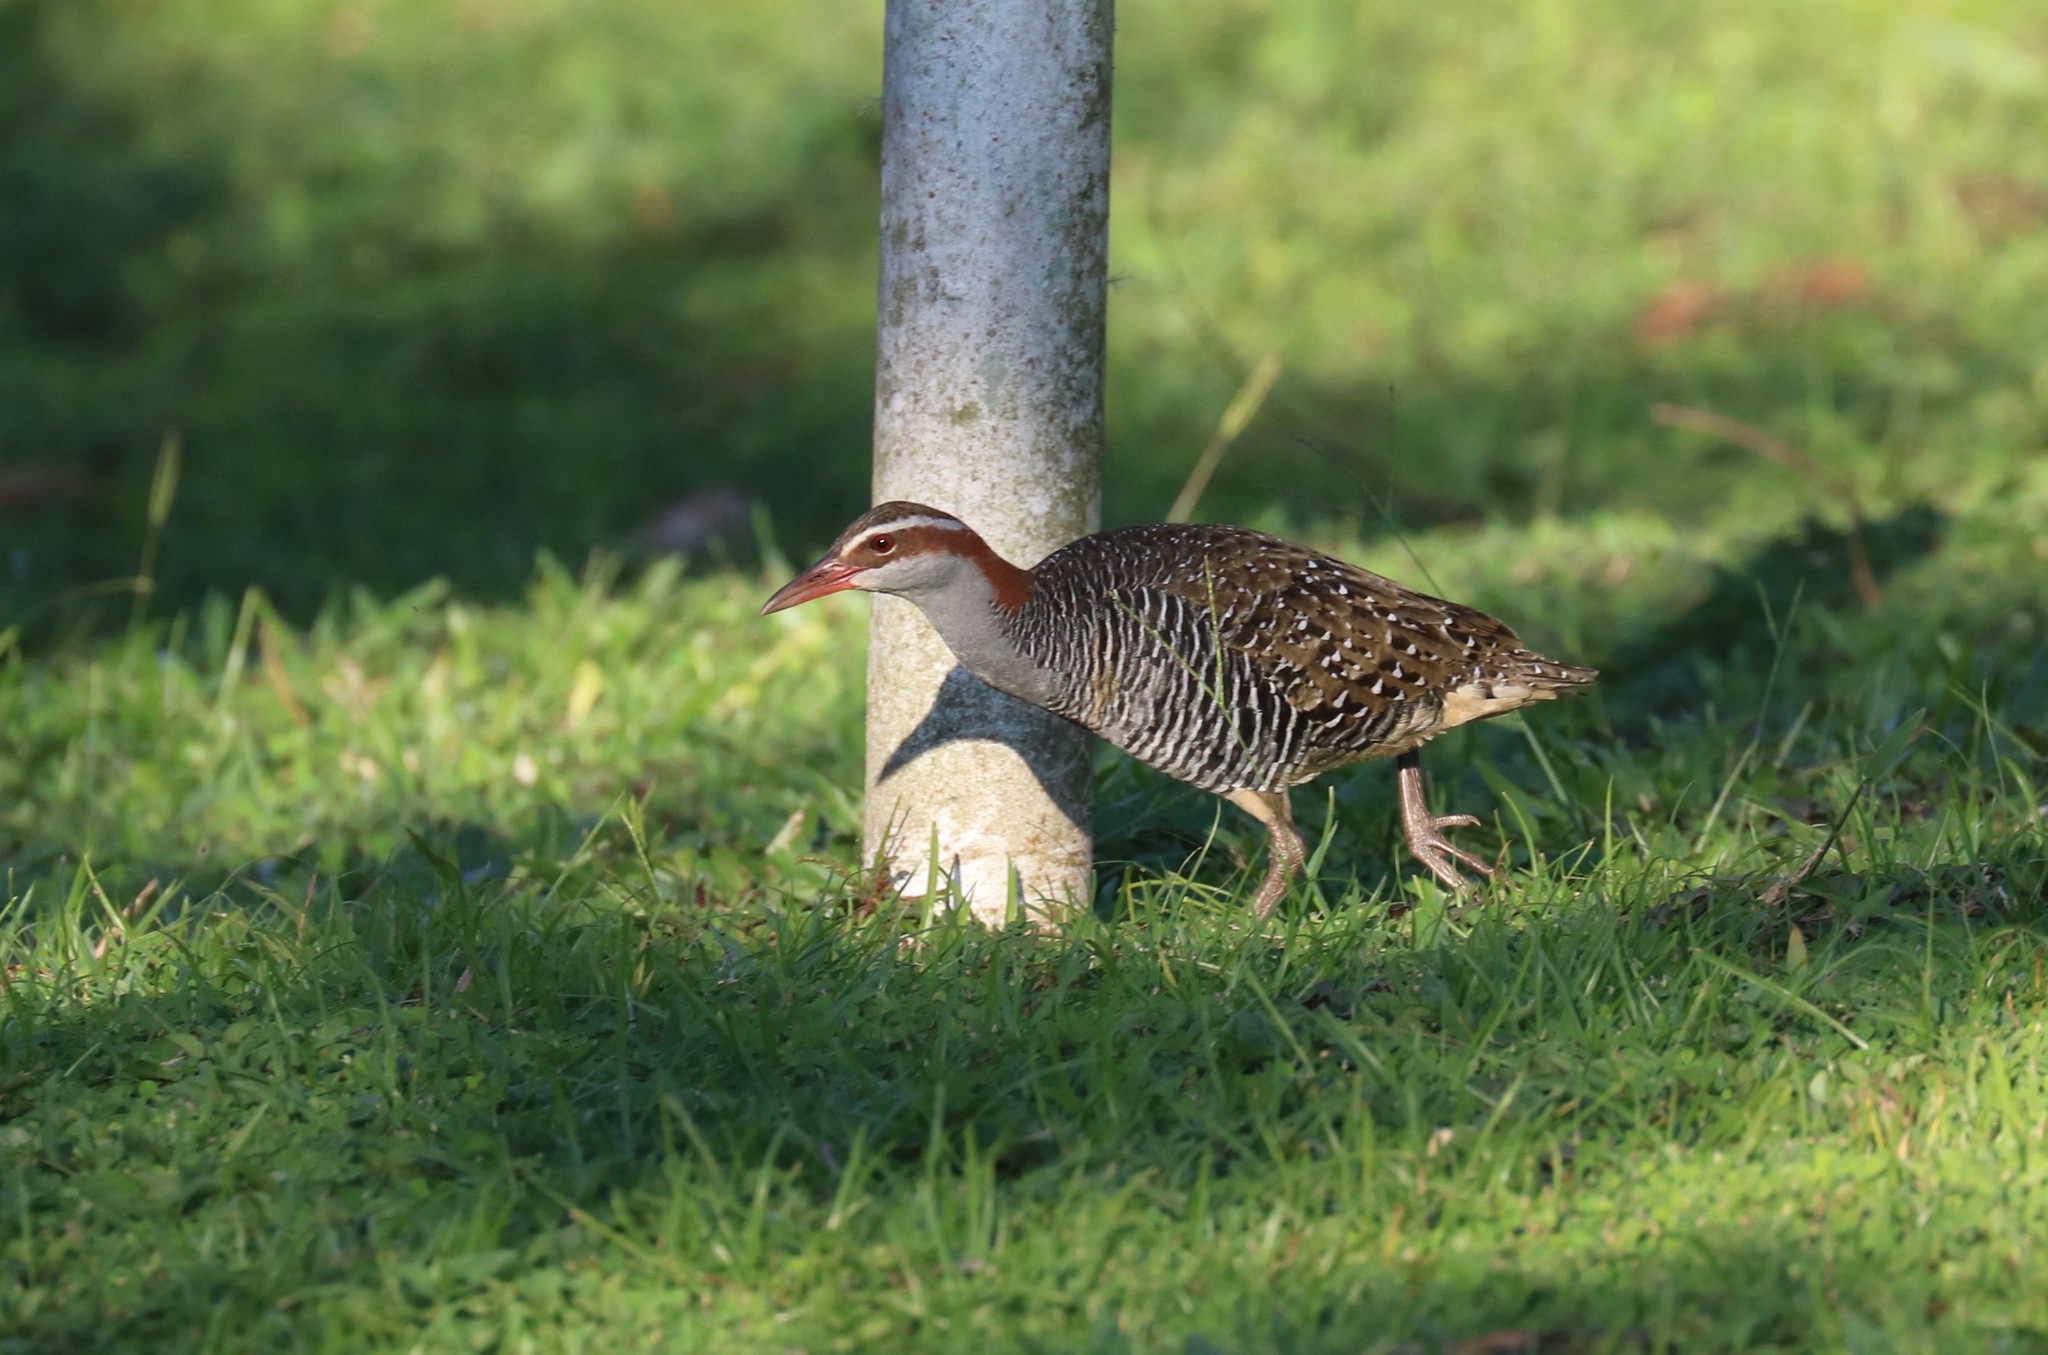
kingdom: Animalia
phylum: Chordata
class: Aves
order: Gruiformes
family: Rallidae
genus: Gallirallus
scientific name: Gallirallus philippensis
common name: Buff-banded rail
